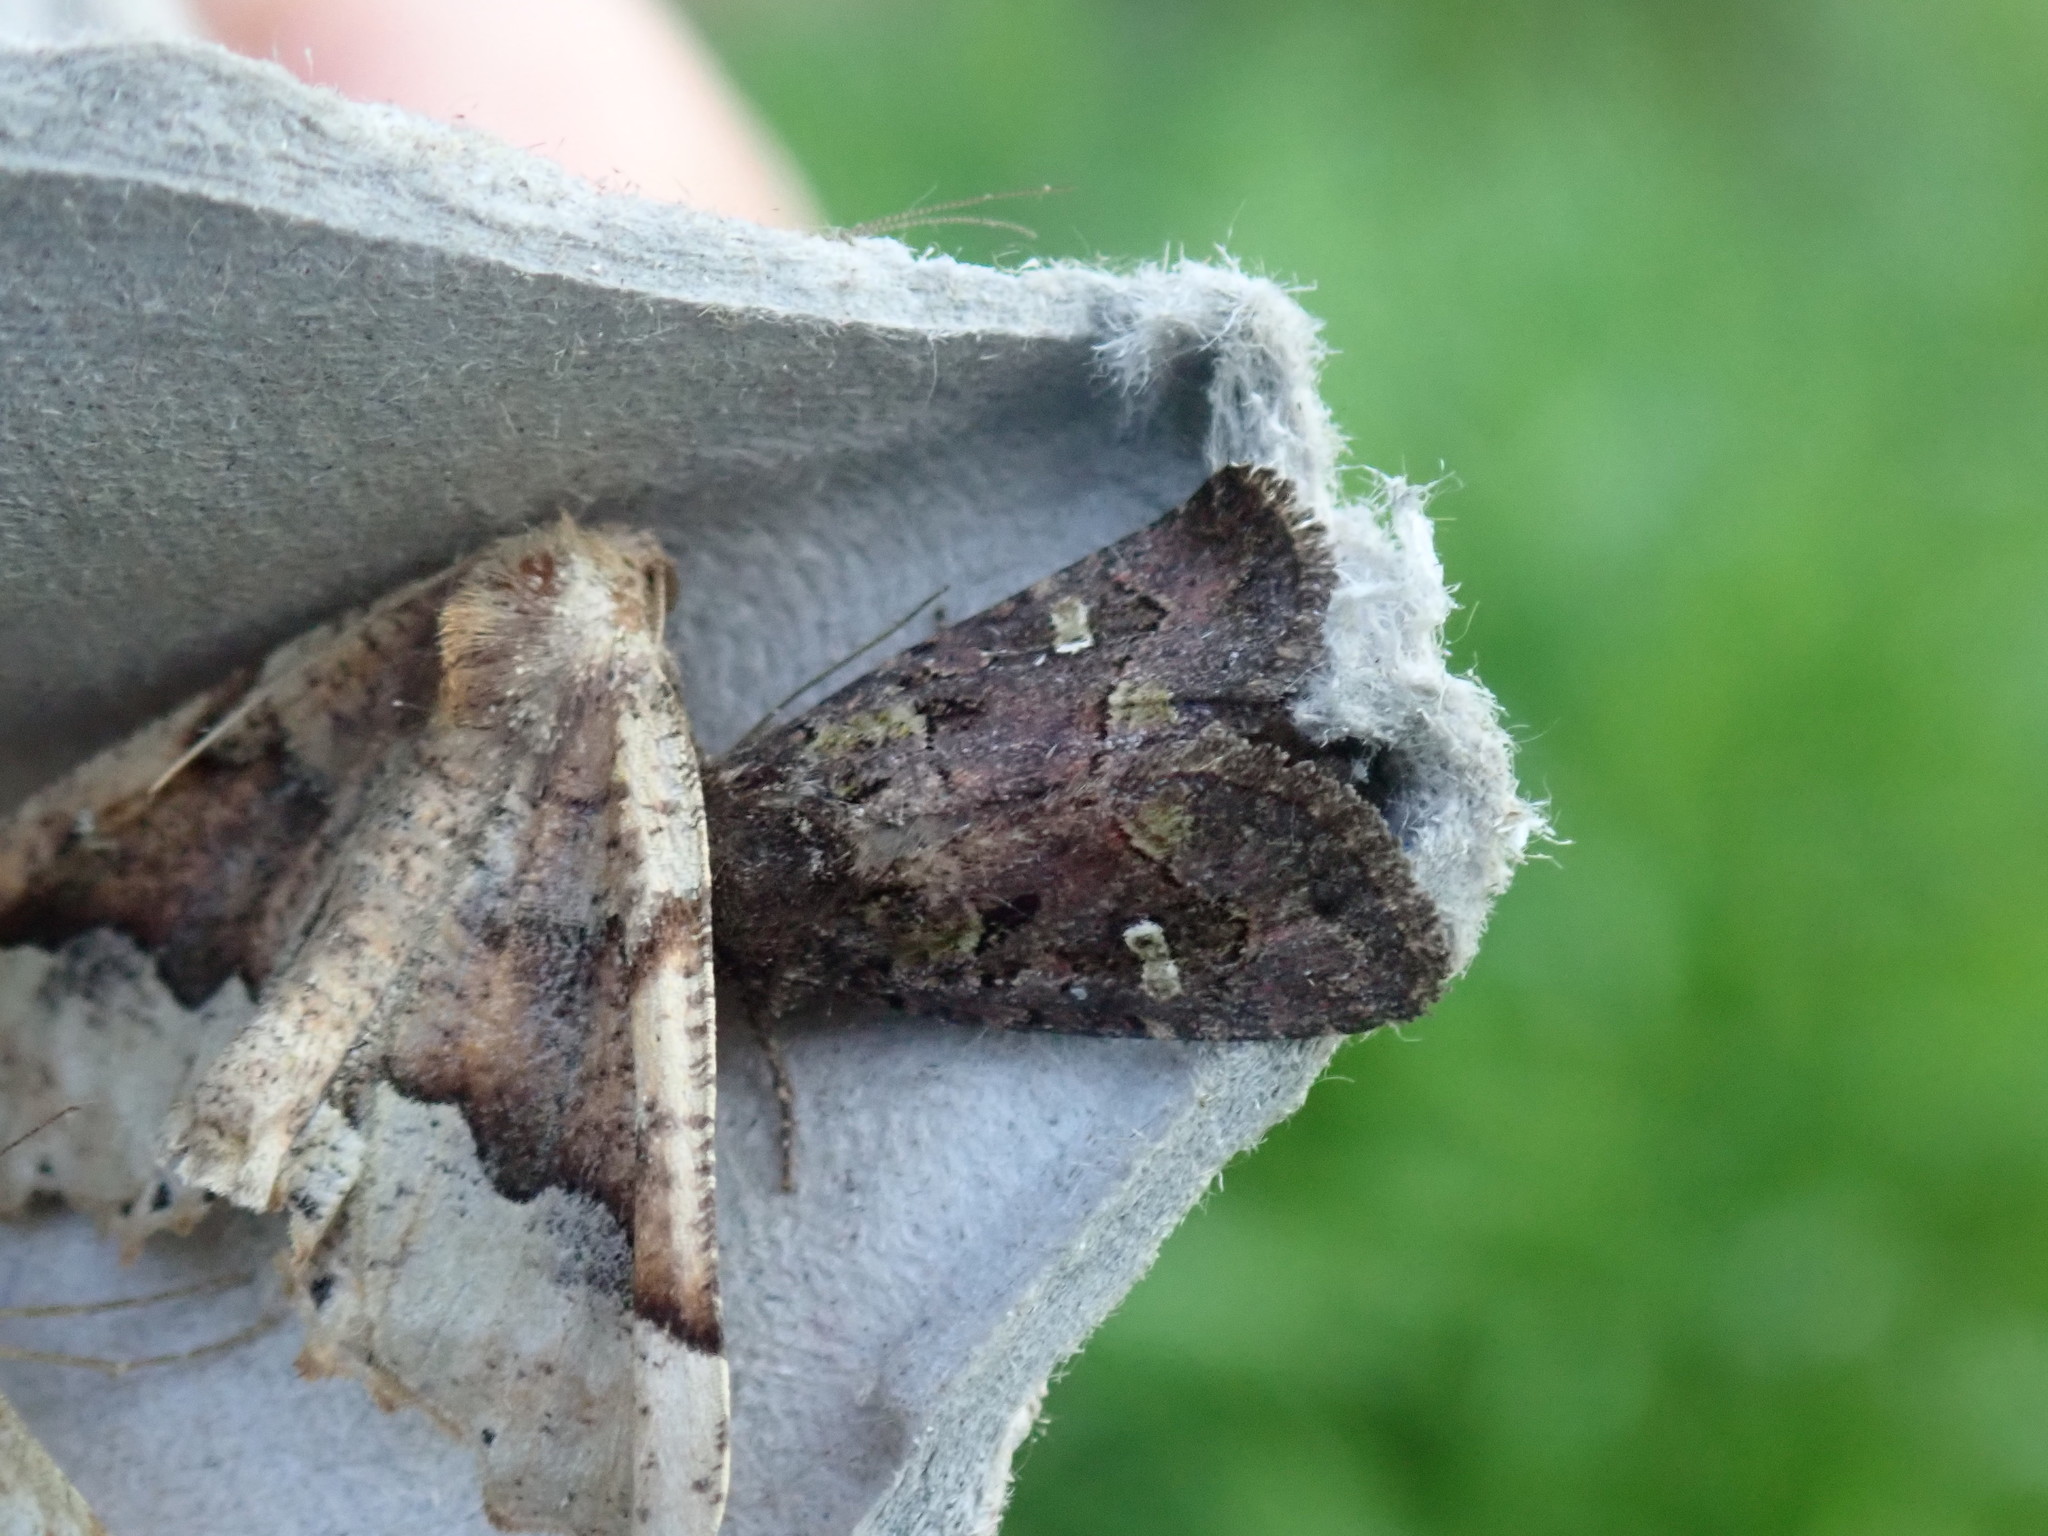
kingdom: Animalia
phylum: Arthropoda
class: Insecta
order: Lepidoptera
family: Noctuidae
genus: Lacinipolia
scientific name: Lacinipolia renigera
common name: Kidney-spotted minor
